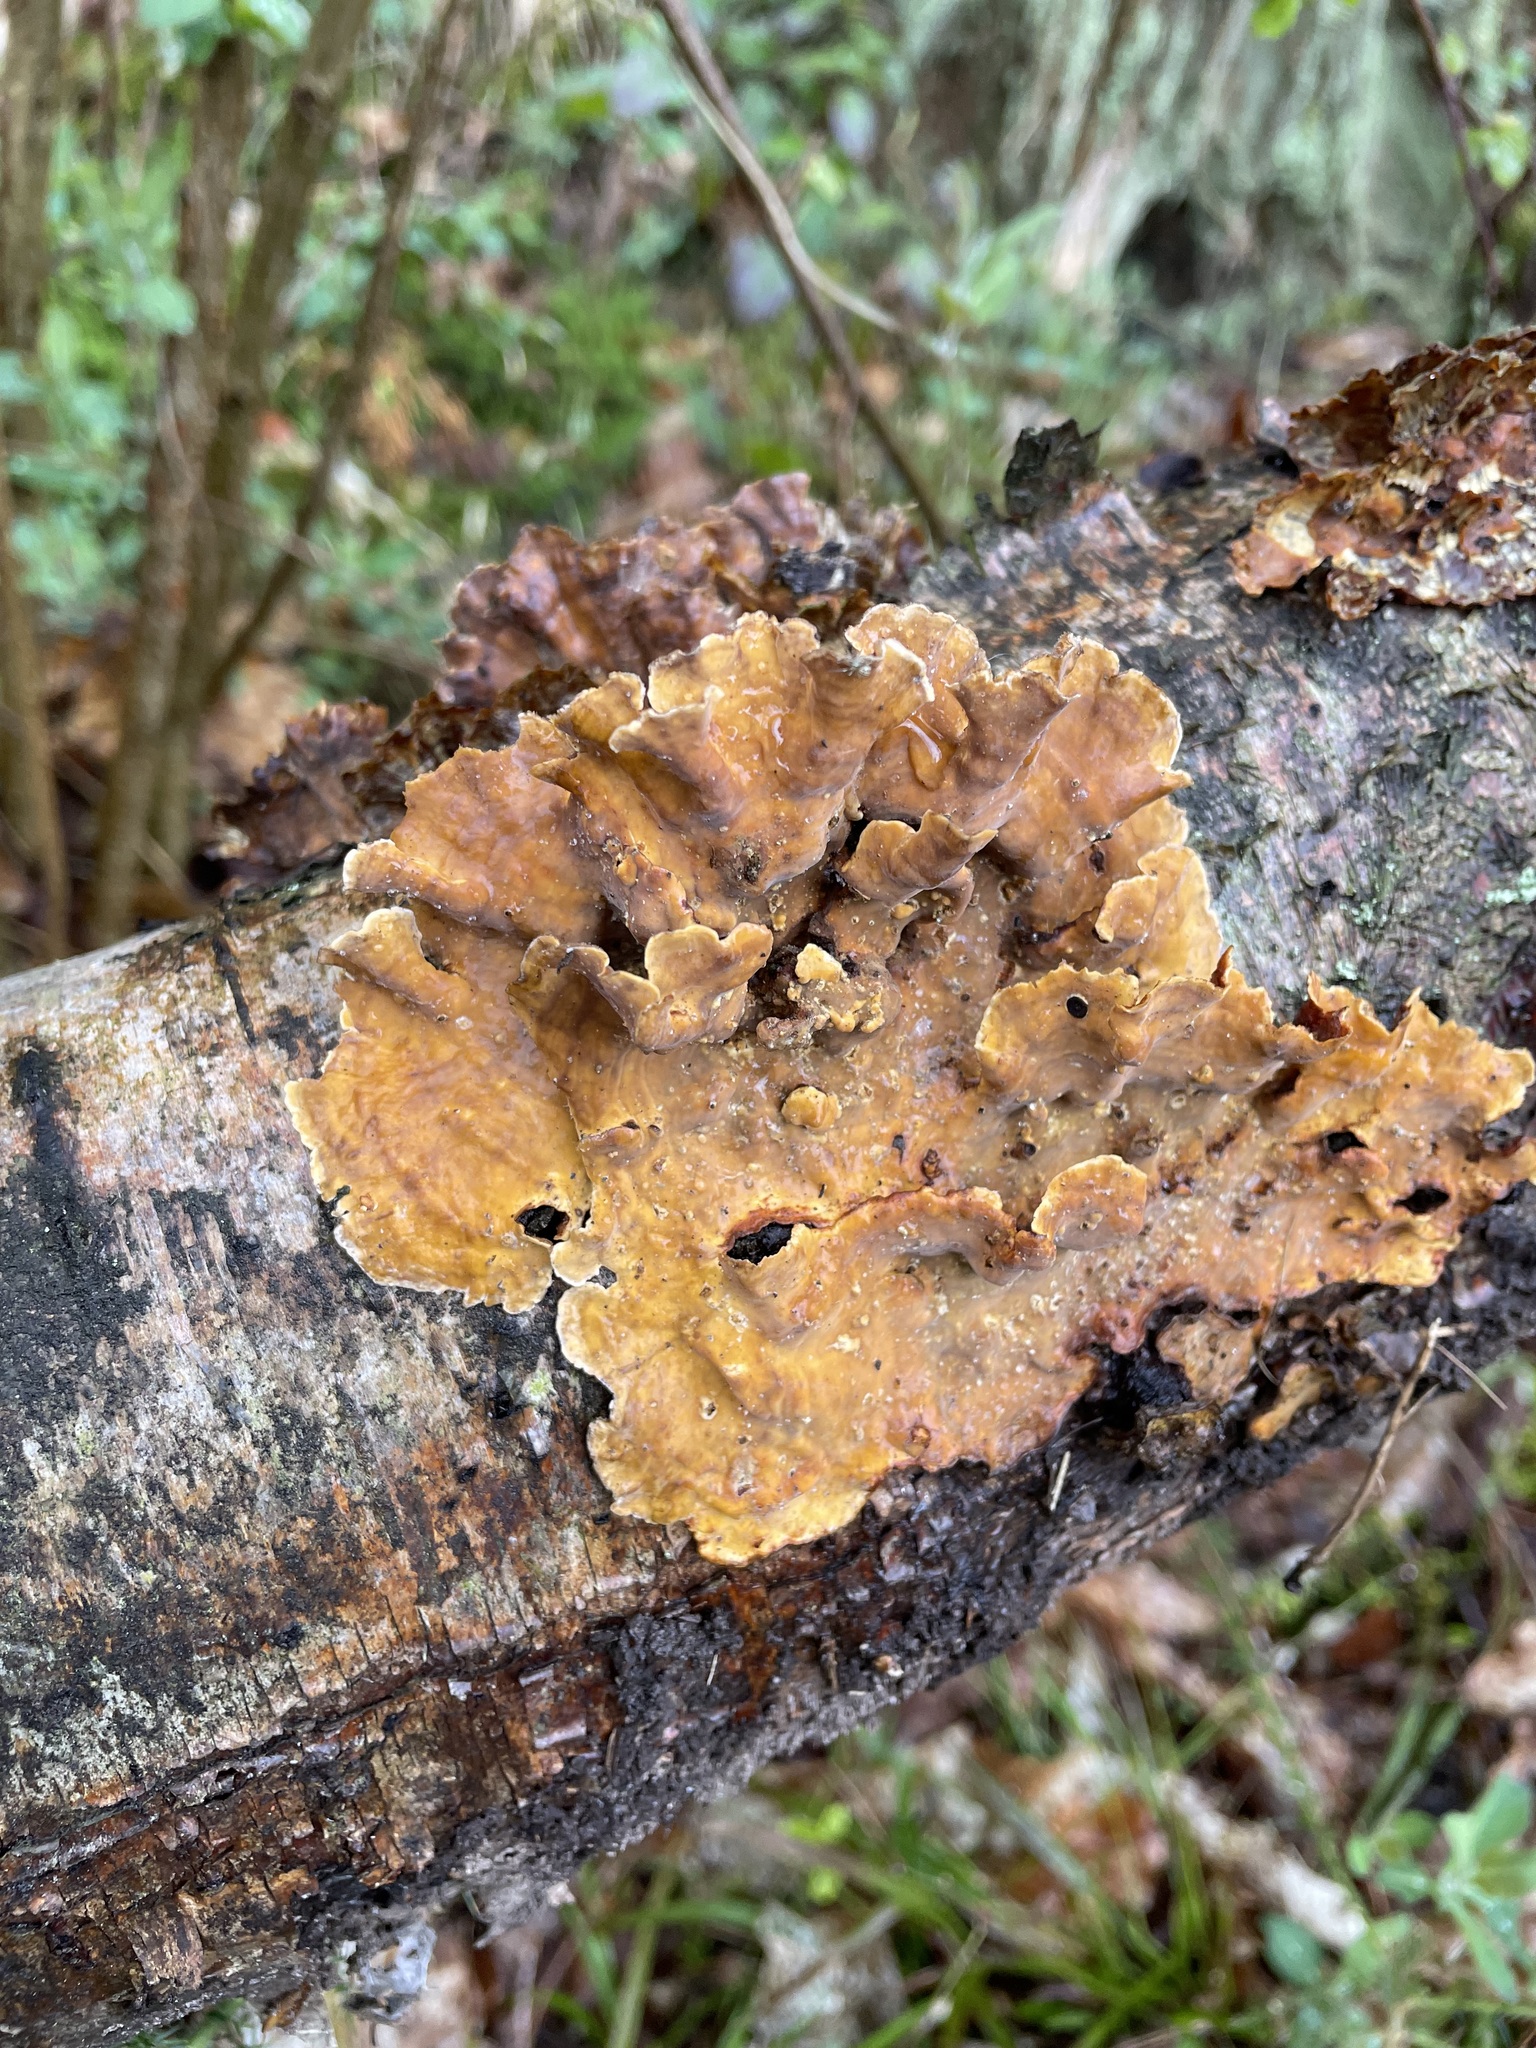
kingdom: Fungi
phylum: Basidiomycota
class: Agaricomycetes
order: Russulales
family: Stereaceae
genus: Stereum
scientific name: Stereum hirsutum
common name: Hairy curtain crust
